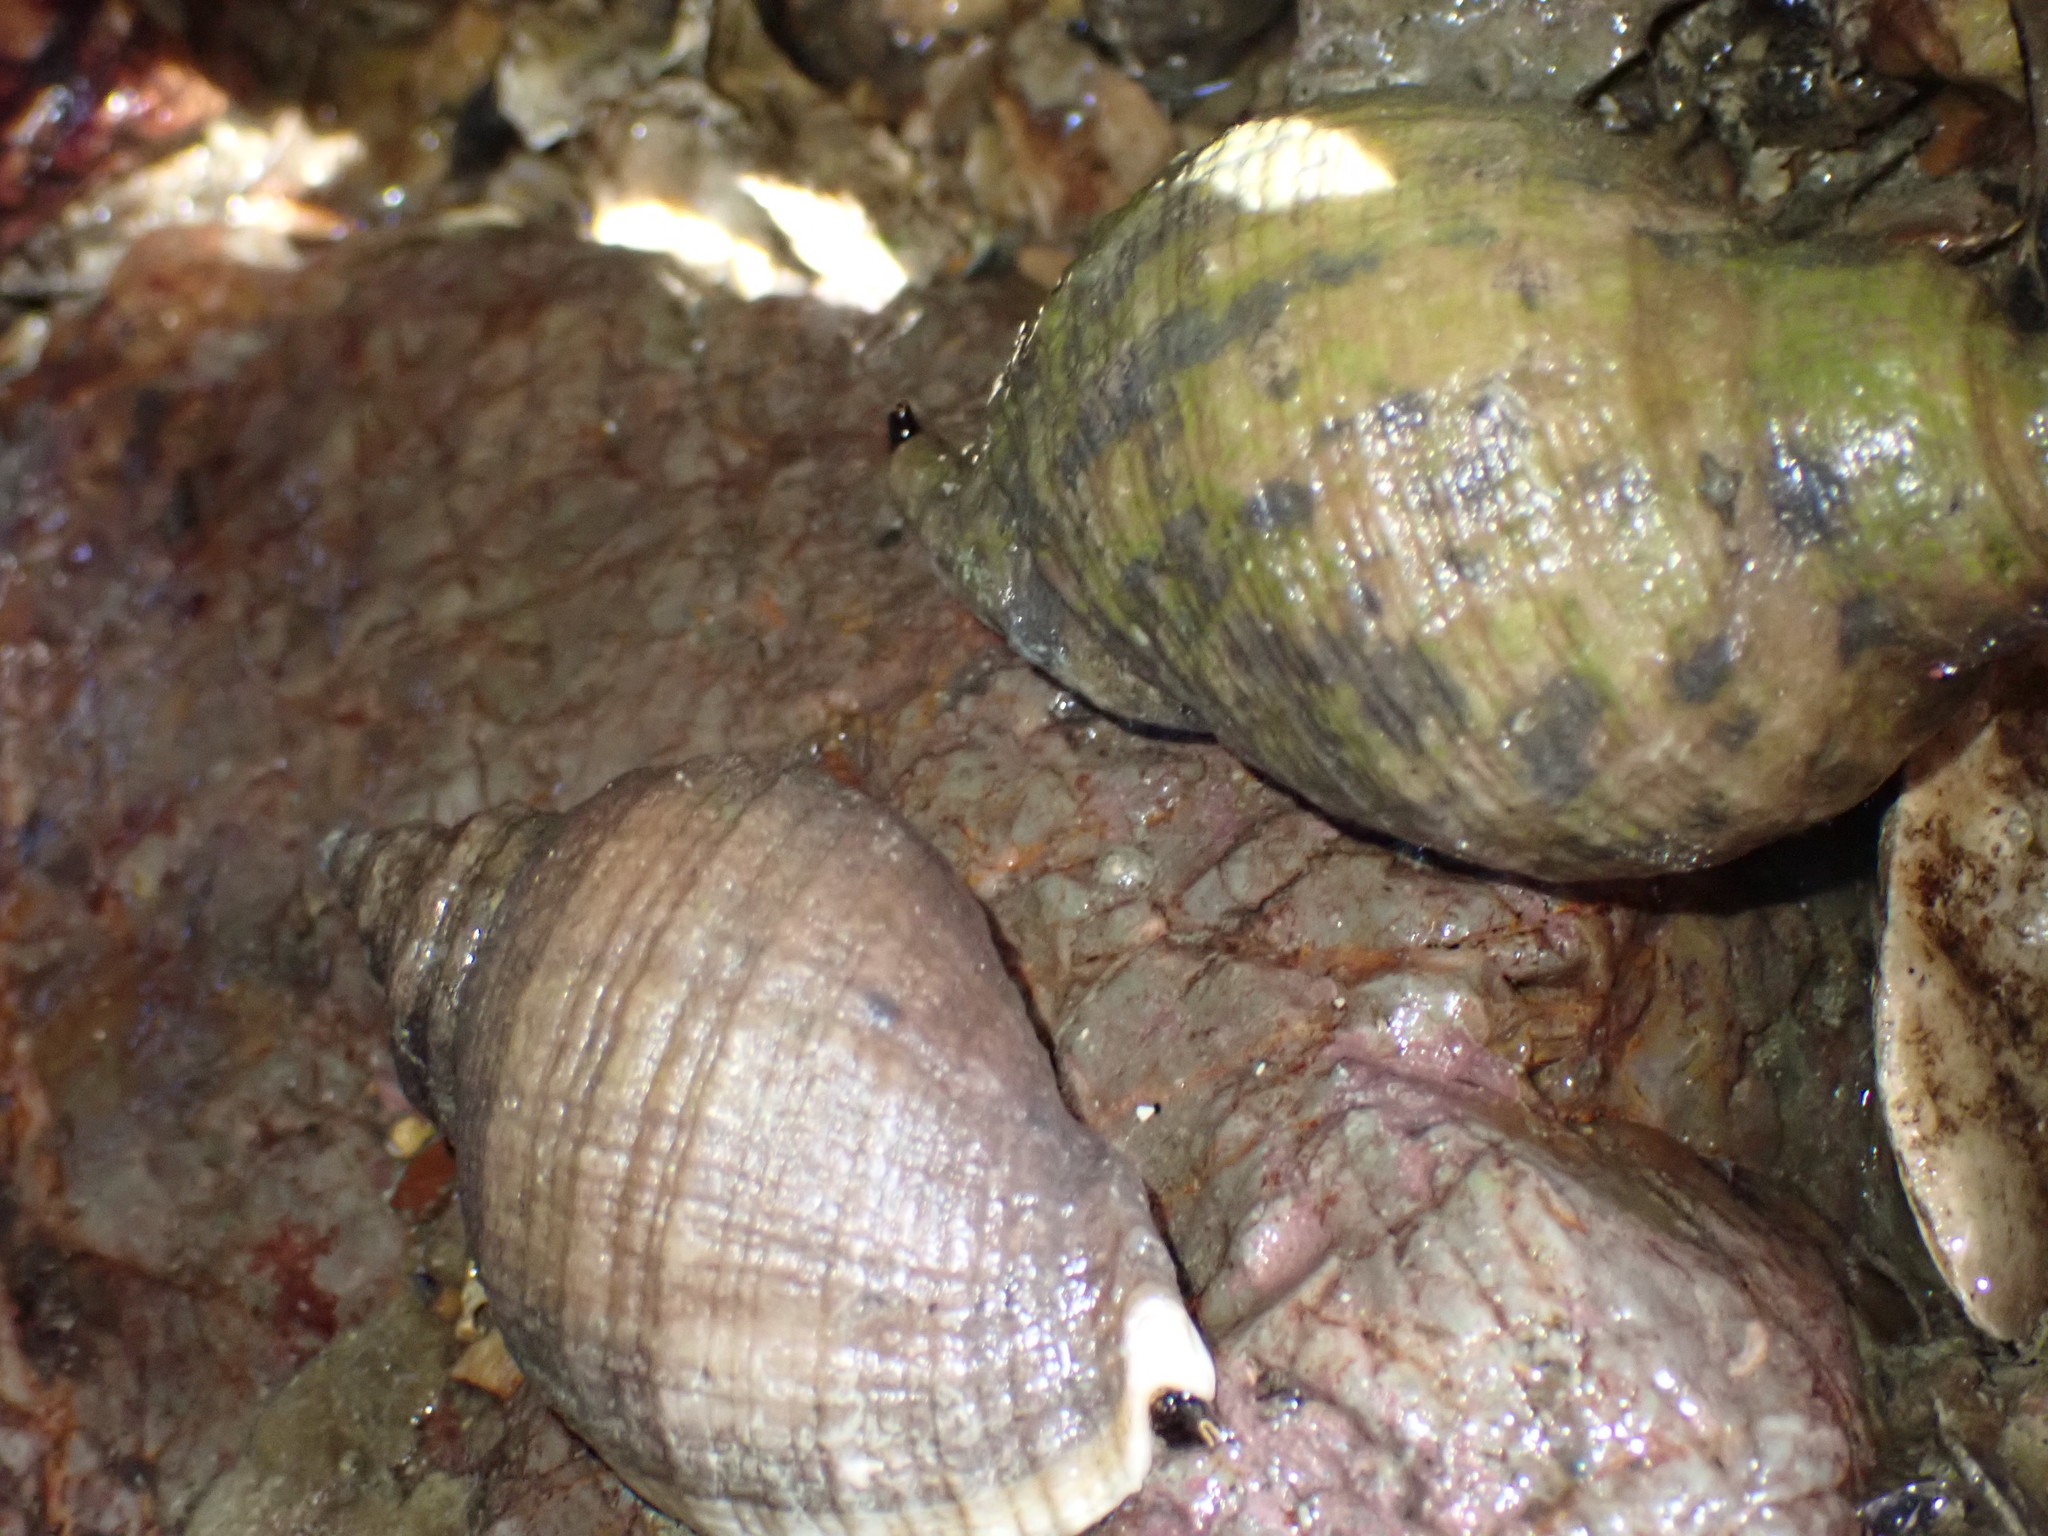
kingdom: Animalia
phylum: Mollusca
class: Gastropoda
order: Neogastropoda
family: Muricidae
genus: Dicathais
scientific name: Dicathais orbita
